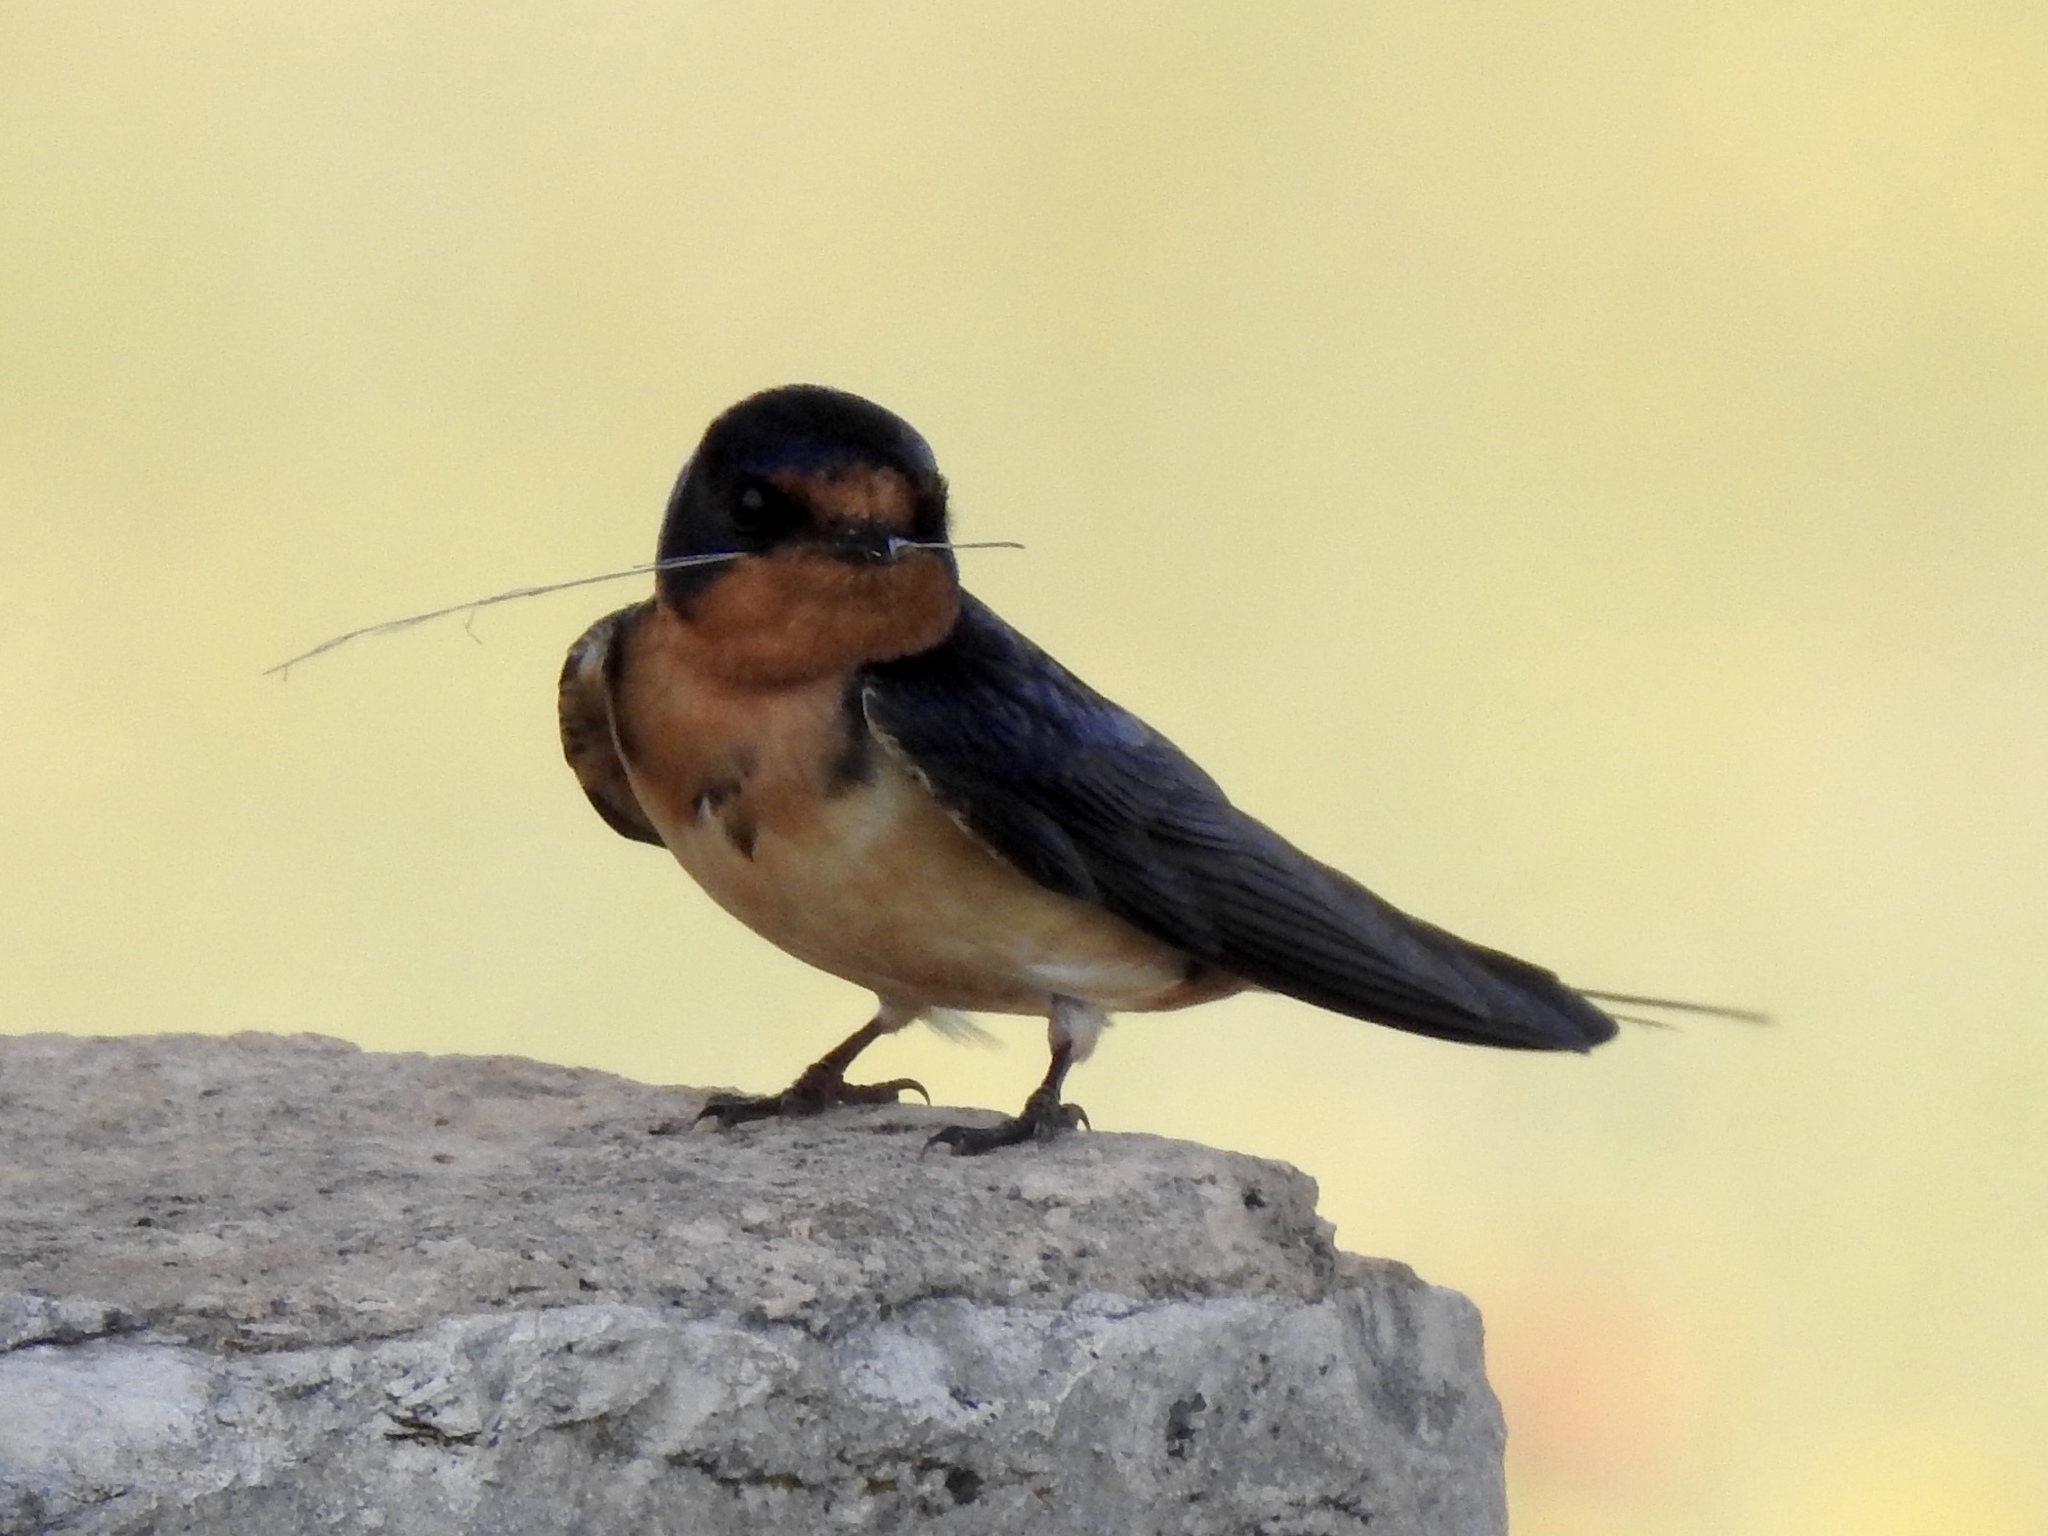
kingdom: Animalia
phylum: Chordata
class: Aves
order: Passeriformes
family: Hirundinidae
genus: Hirundo
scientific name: Hirundo rustica
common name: Barn swallow
